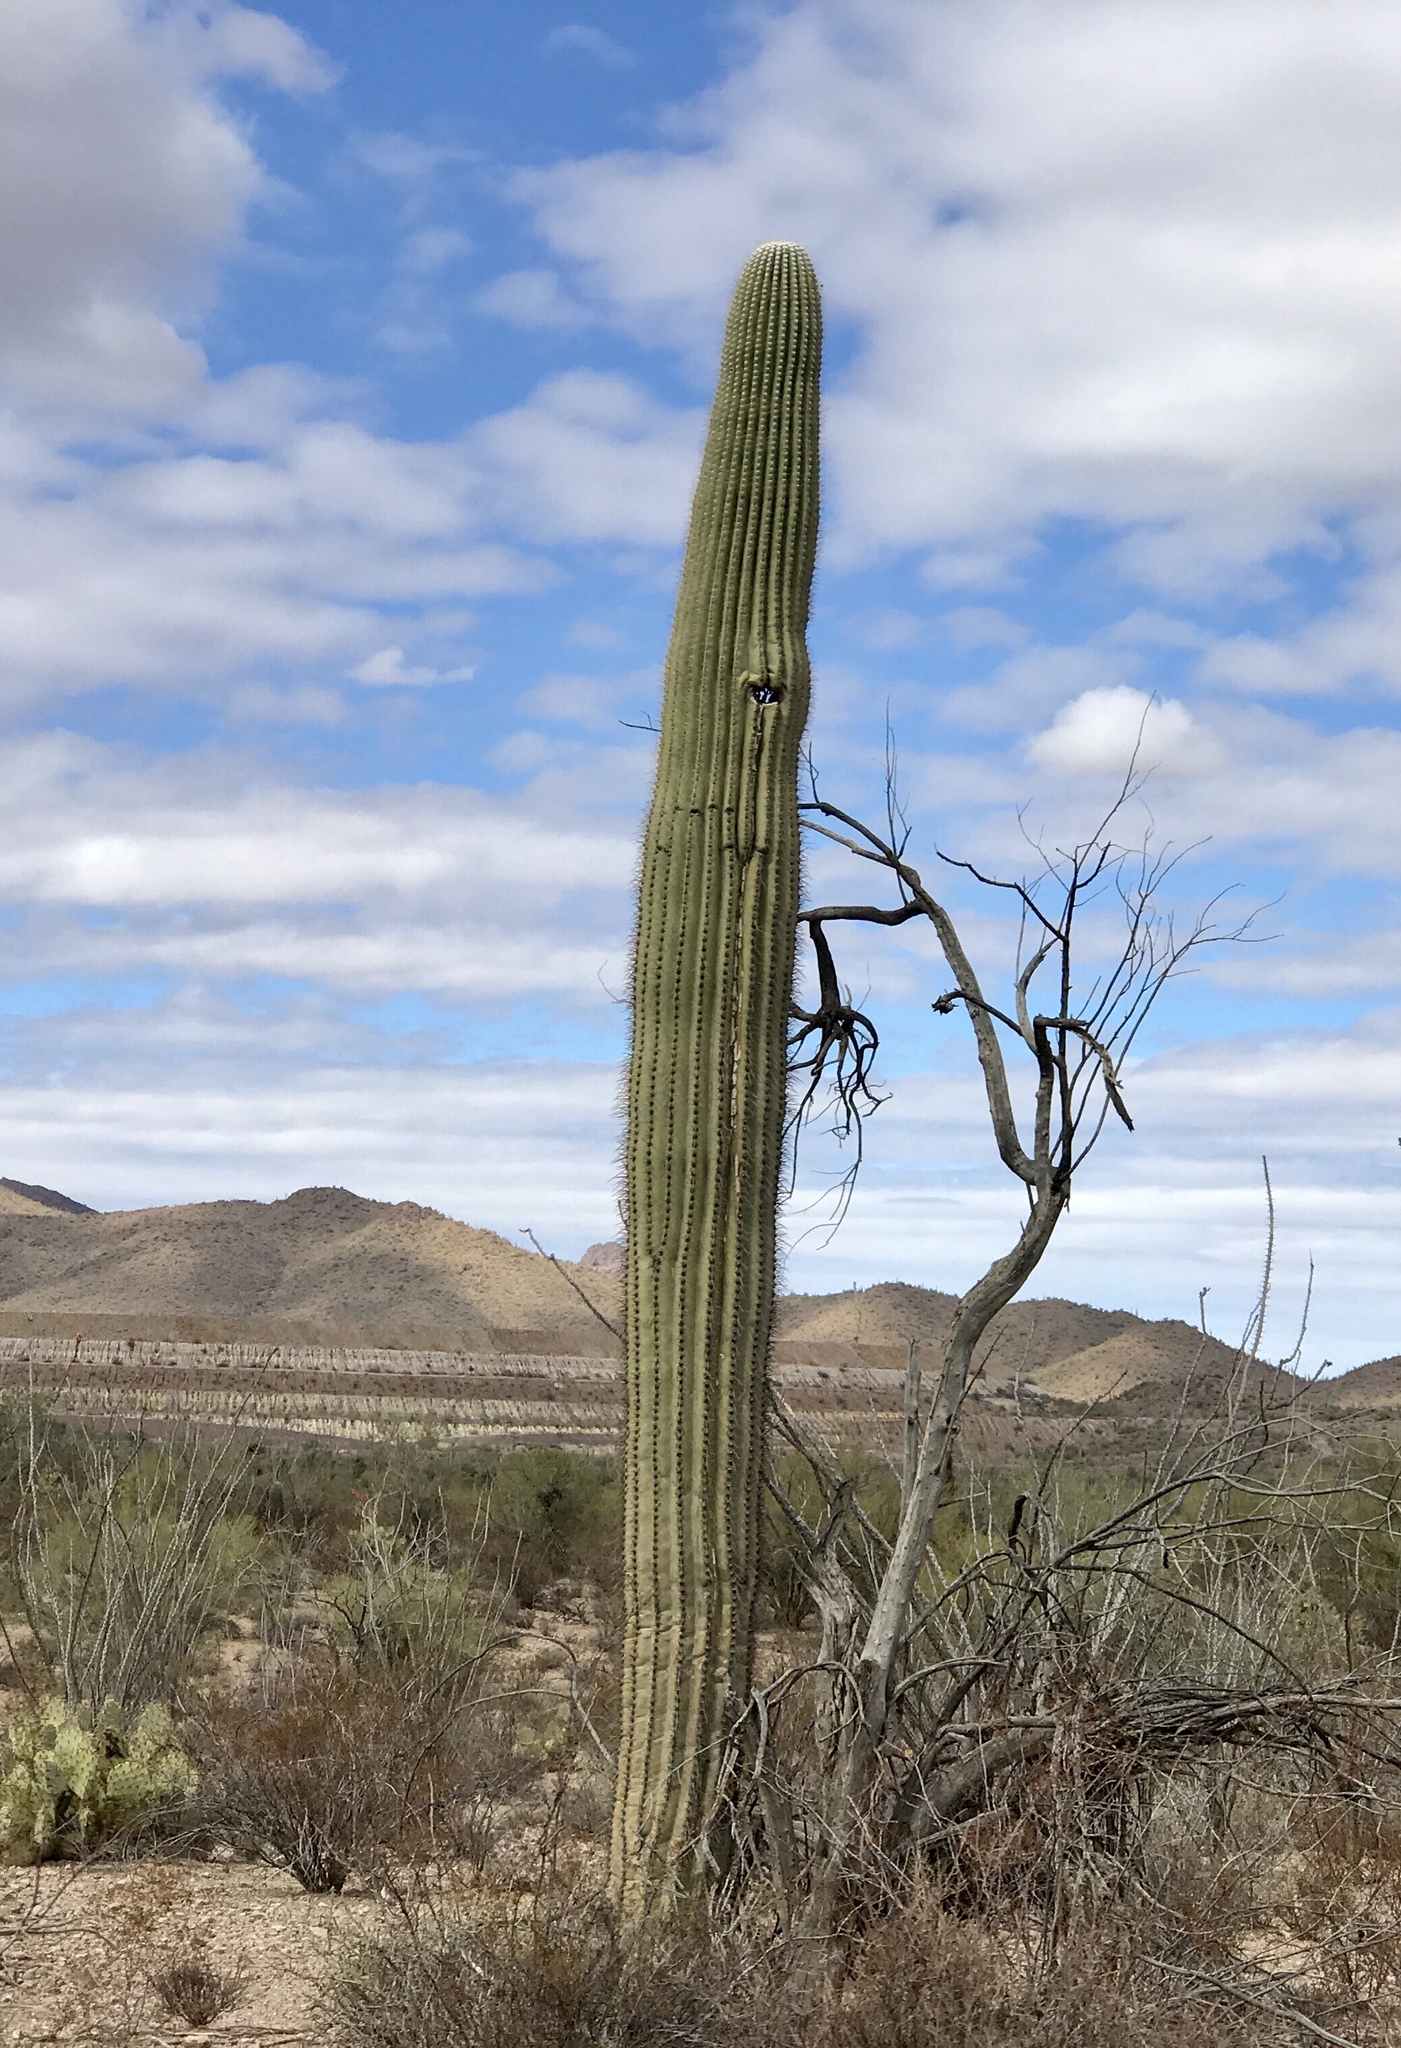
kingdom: Plantae
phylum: Tracheophyta
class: Magnoliopsida
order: Caryophyllales
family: Cactaceae
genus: Carnegiea
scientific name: Carnegiea gigantea
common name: Saguaro
